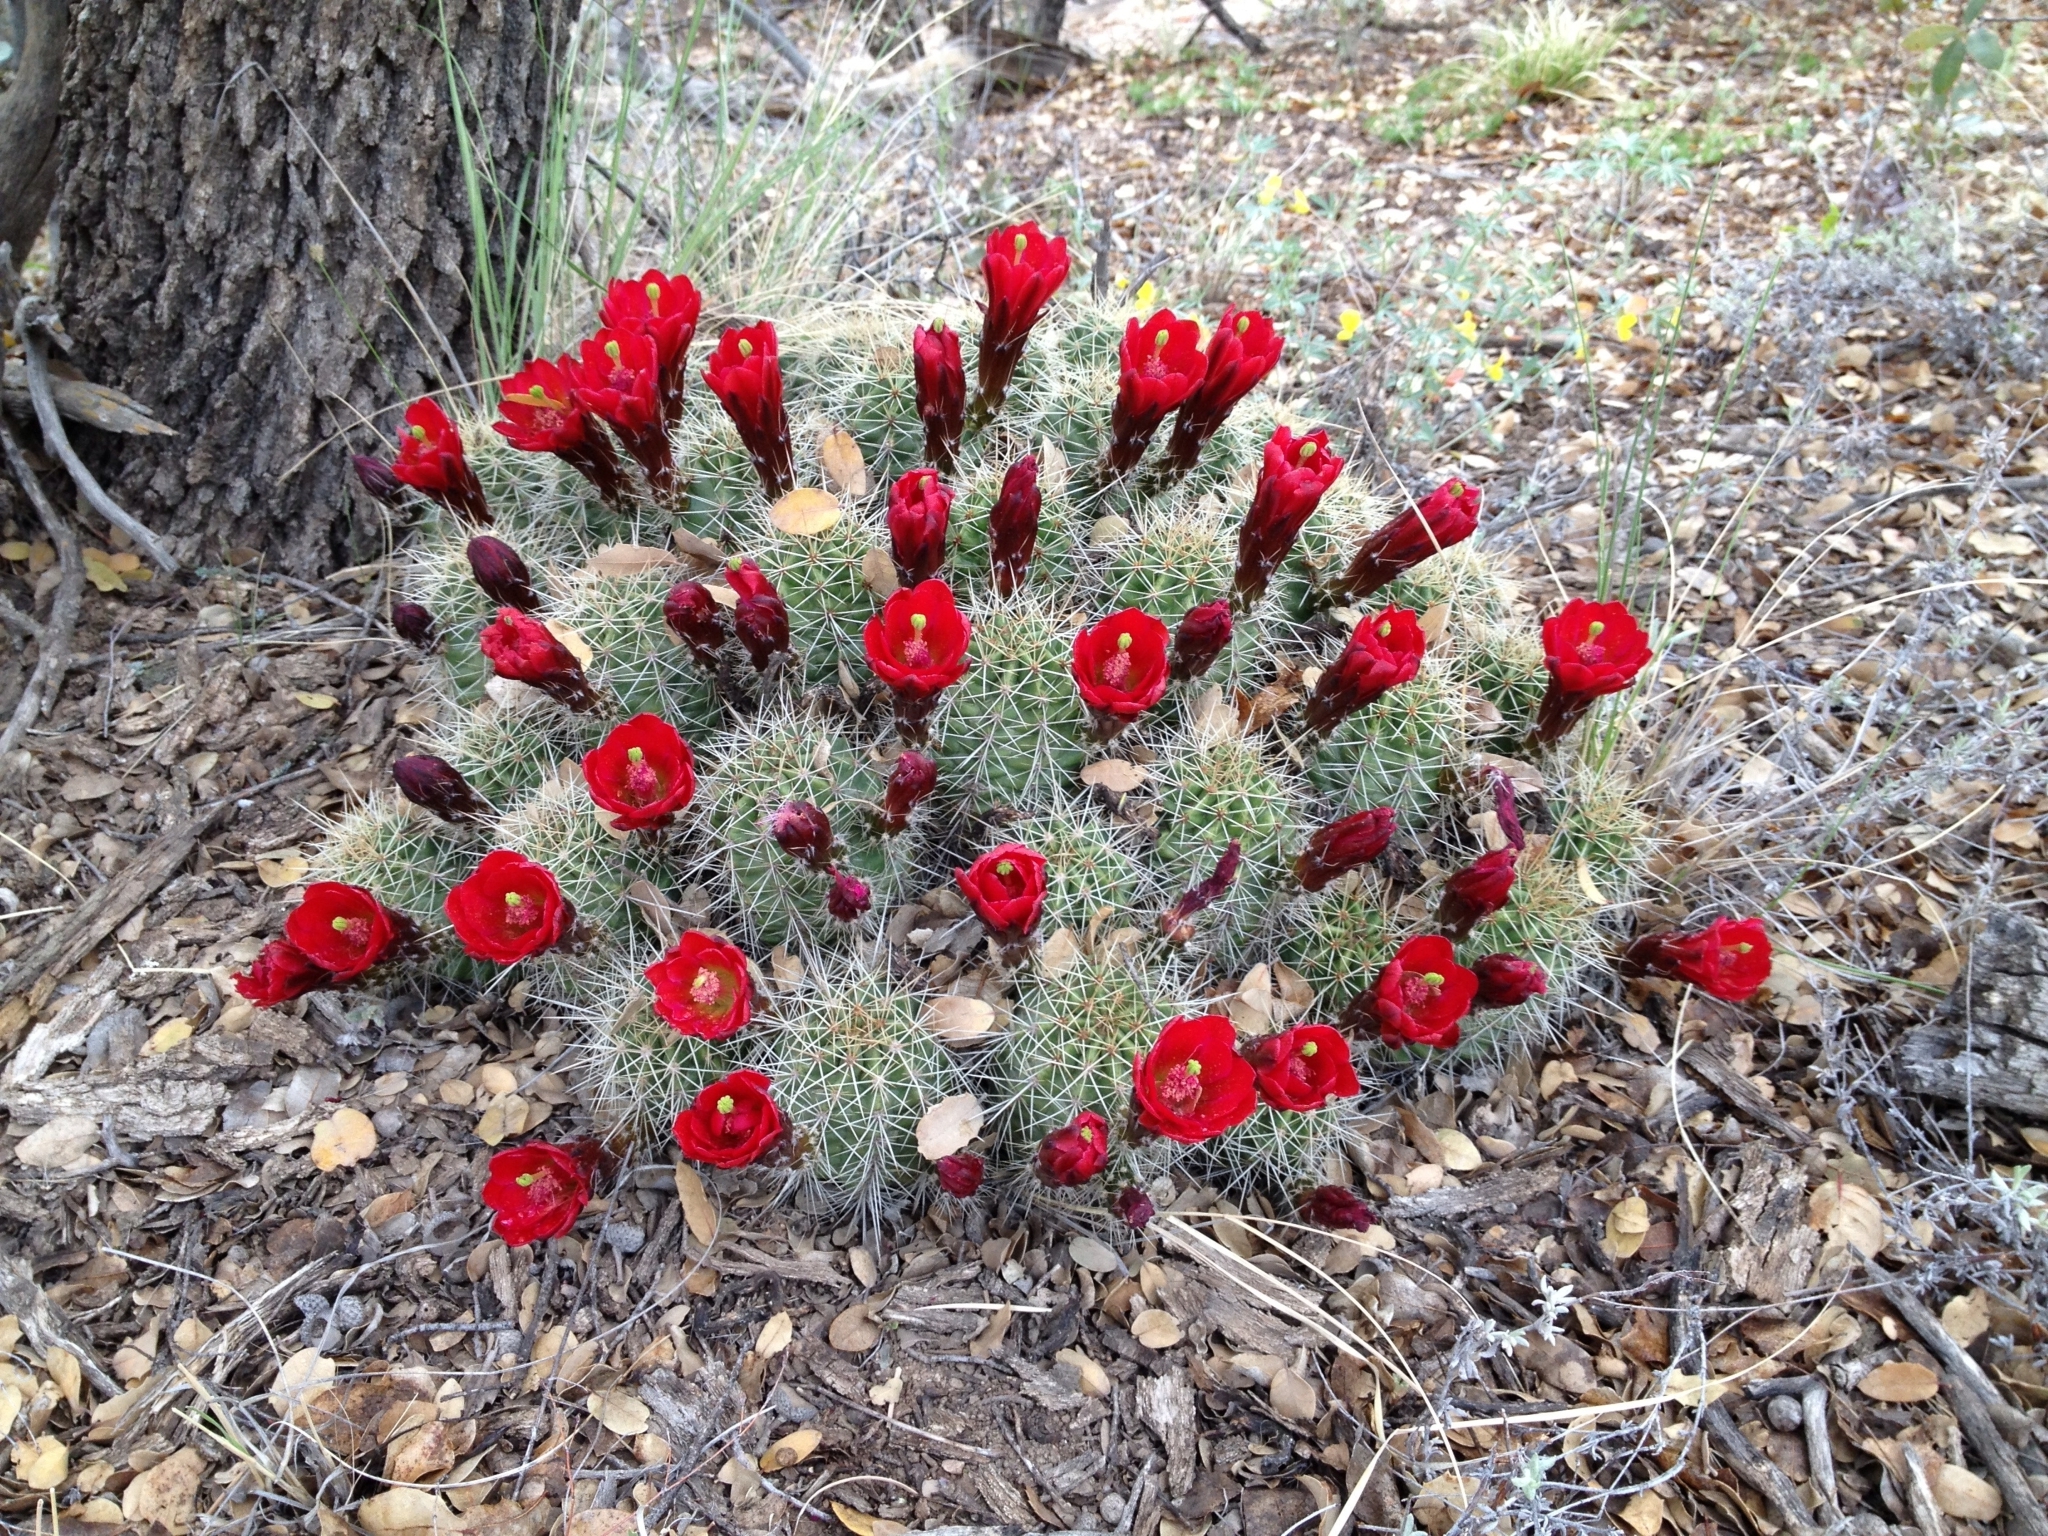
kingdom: Plantae
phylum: Tracheophyta
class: Magnoliopsida
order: Caryophyllales
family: Cactaceae
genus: Echinocereus
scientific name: Echinocereus bakeri
